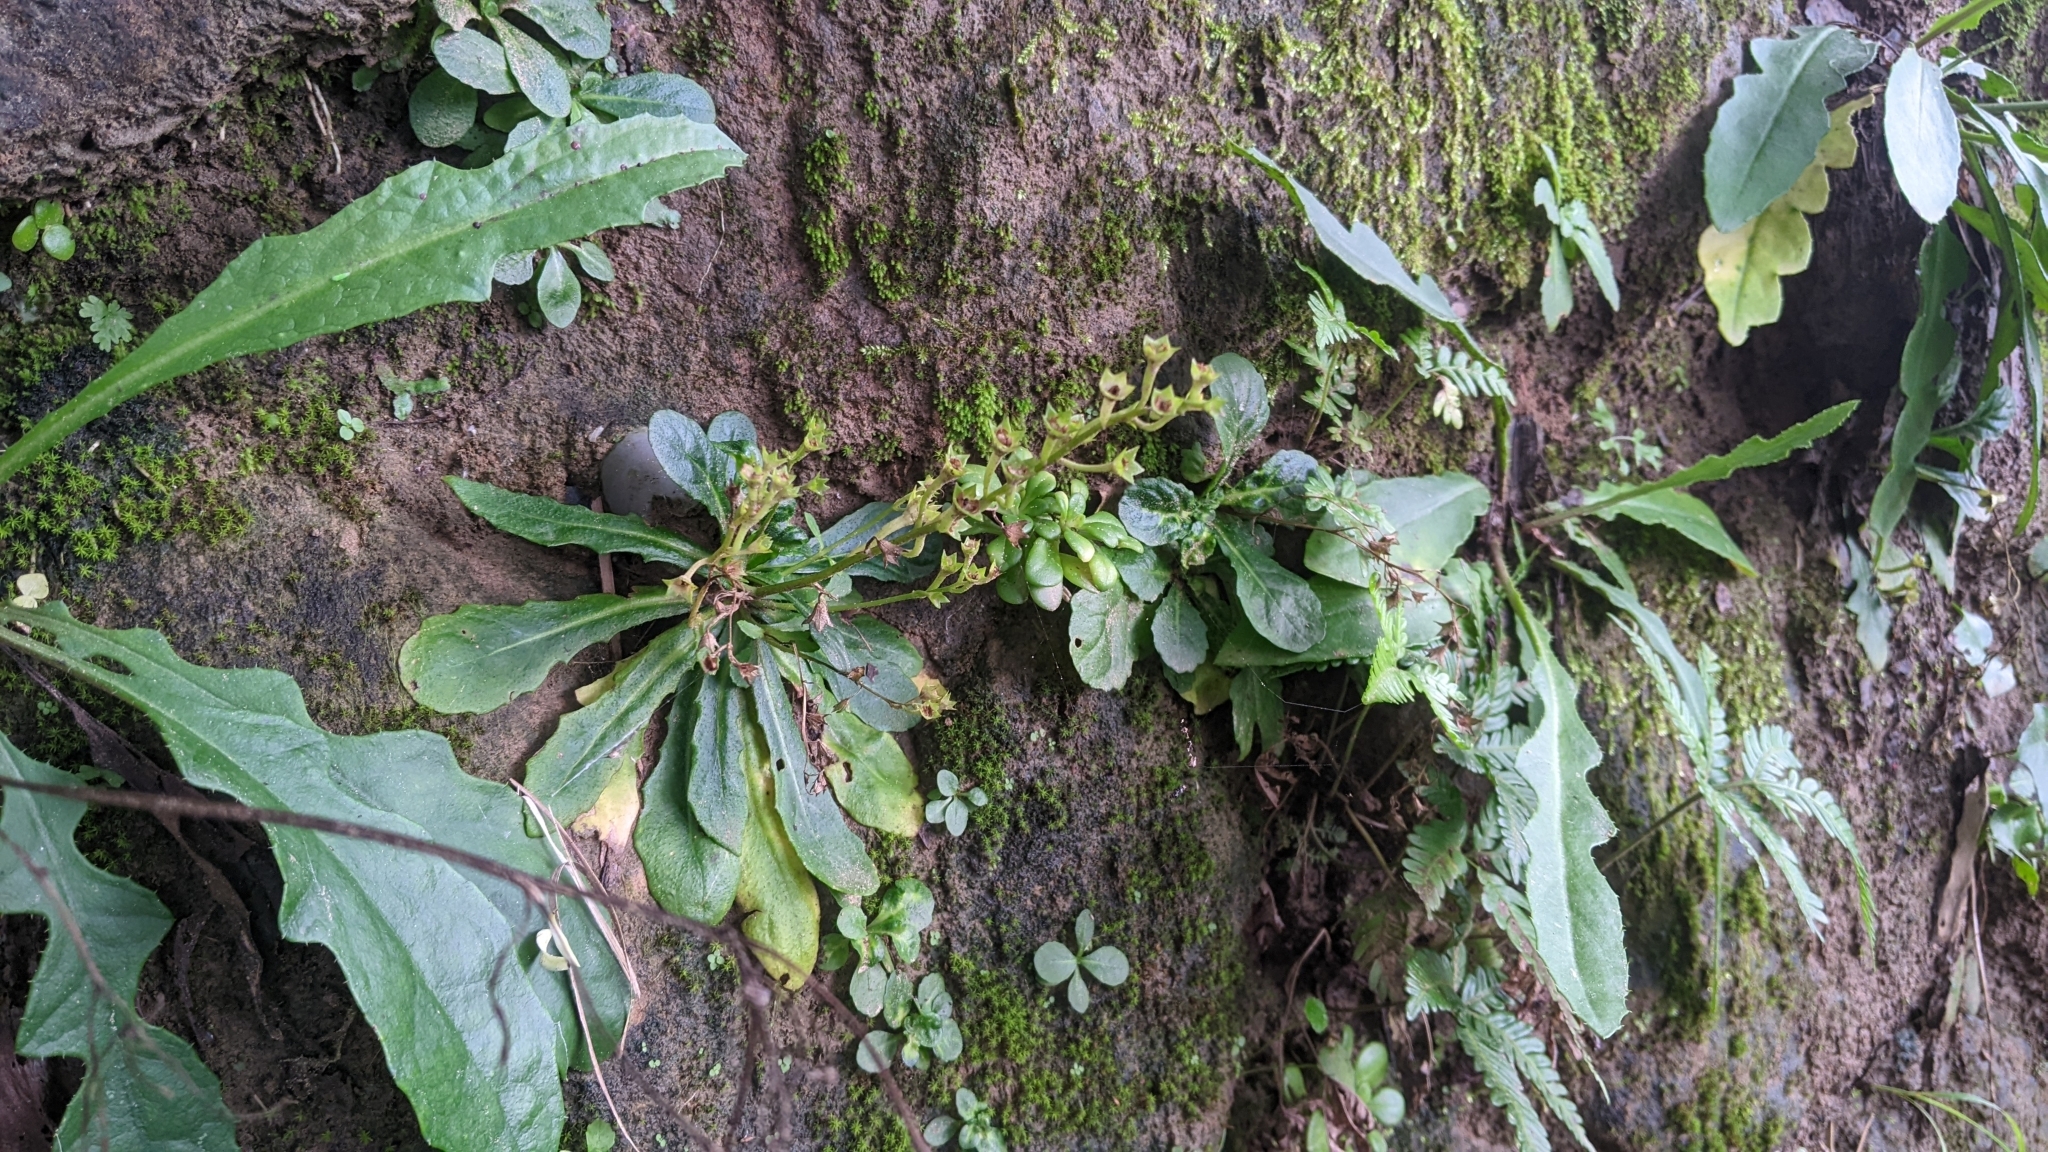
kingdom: Plantae
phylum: Tracheophyta
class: Magnoliopsida
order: Lamiales
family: Mazaceae
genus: Mazus
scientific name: Mazus fauriei
